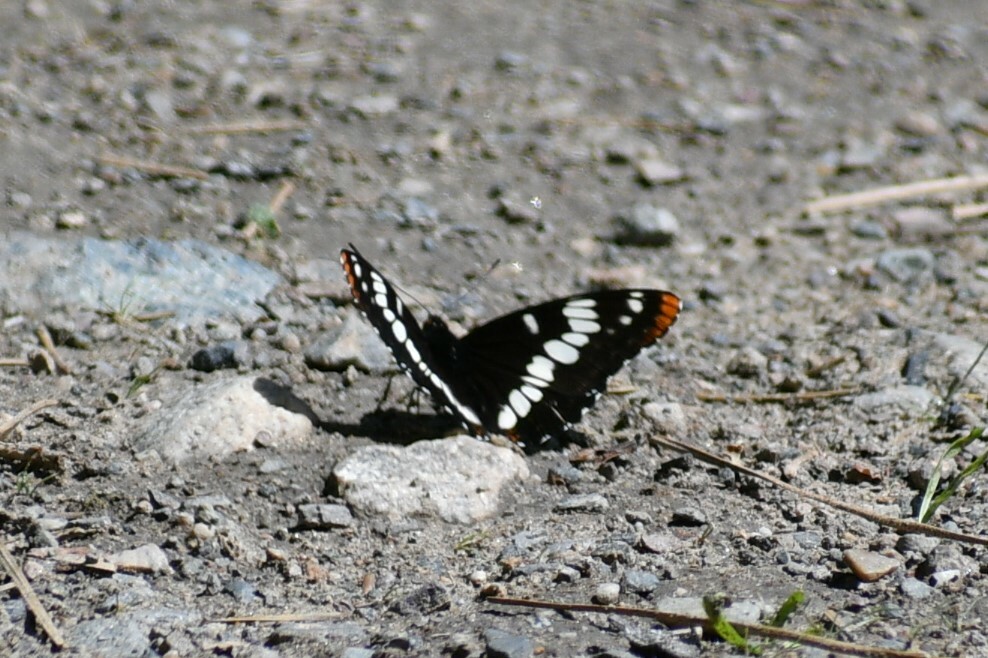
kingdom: Animalia
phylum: Arthropoda
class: Insecta
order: Lepidoptera
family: Nymphalidae
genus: Limenitis
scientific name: Limenitis lorquini
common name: Lorquin's admiral
